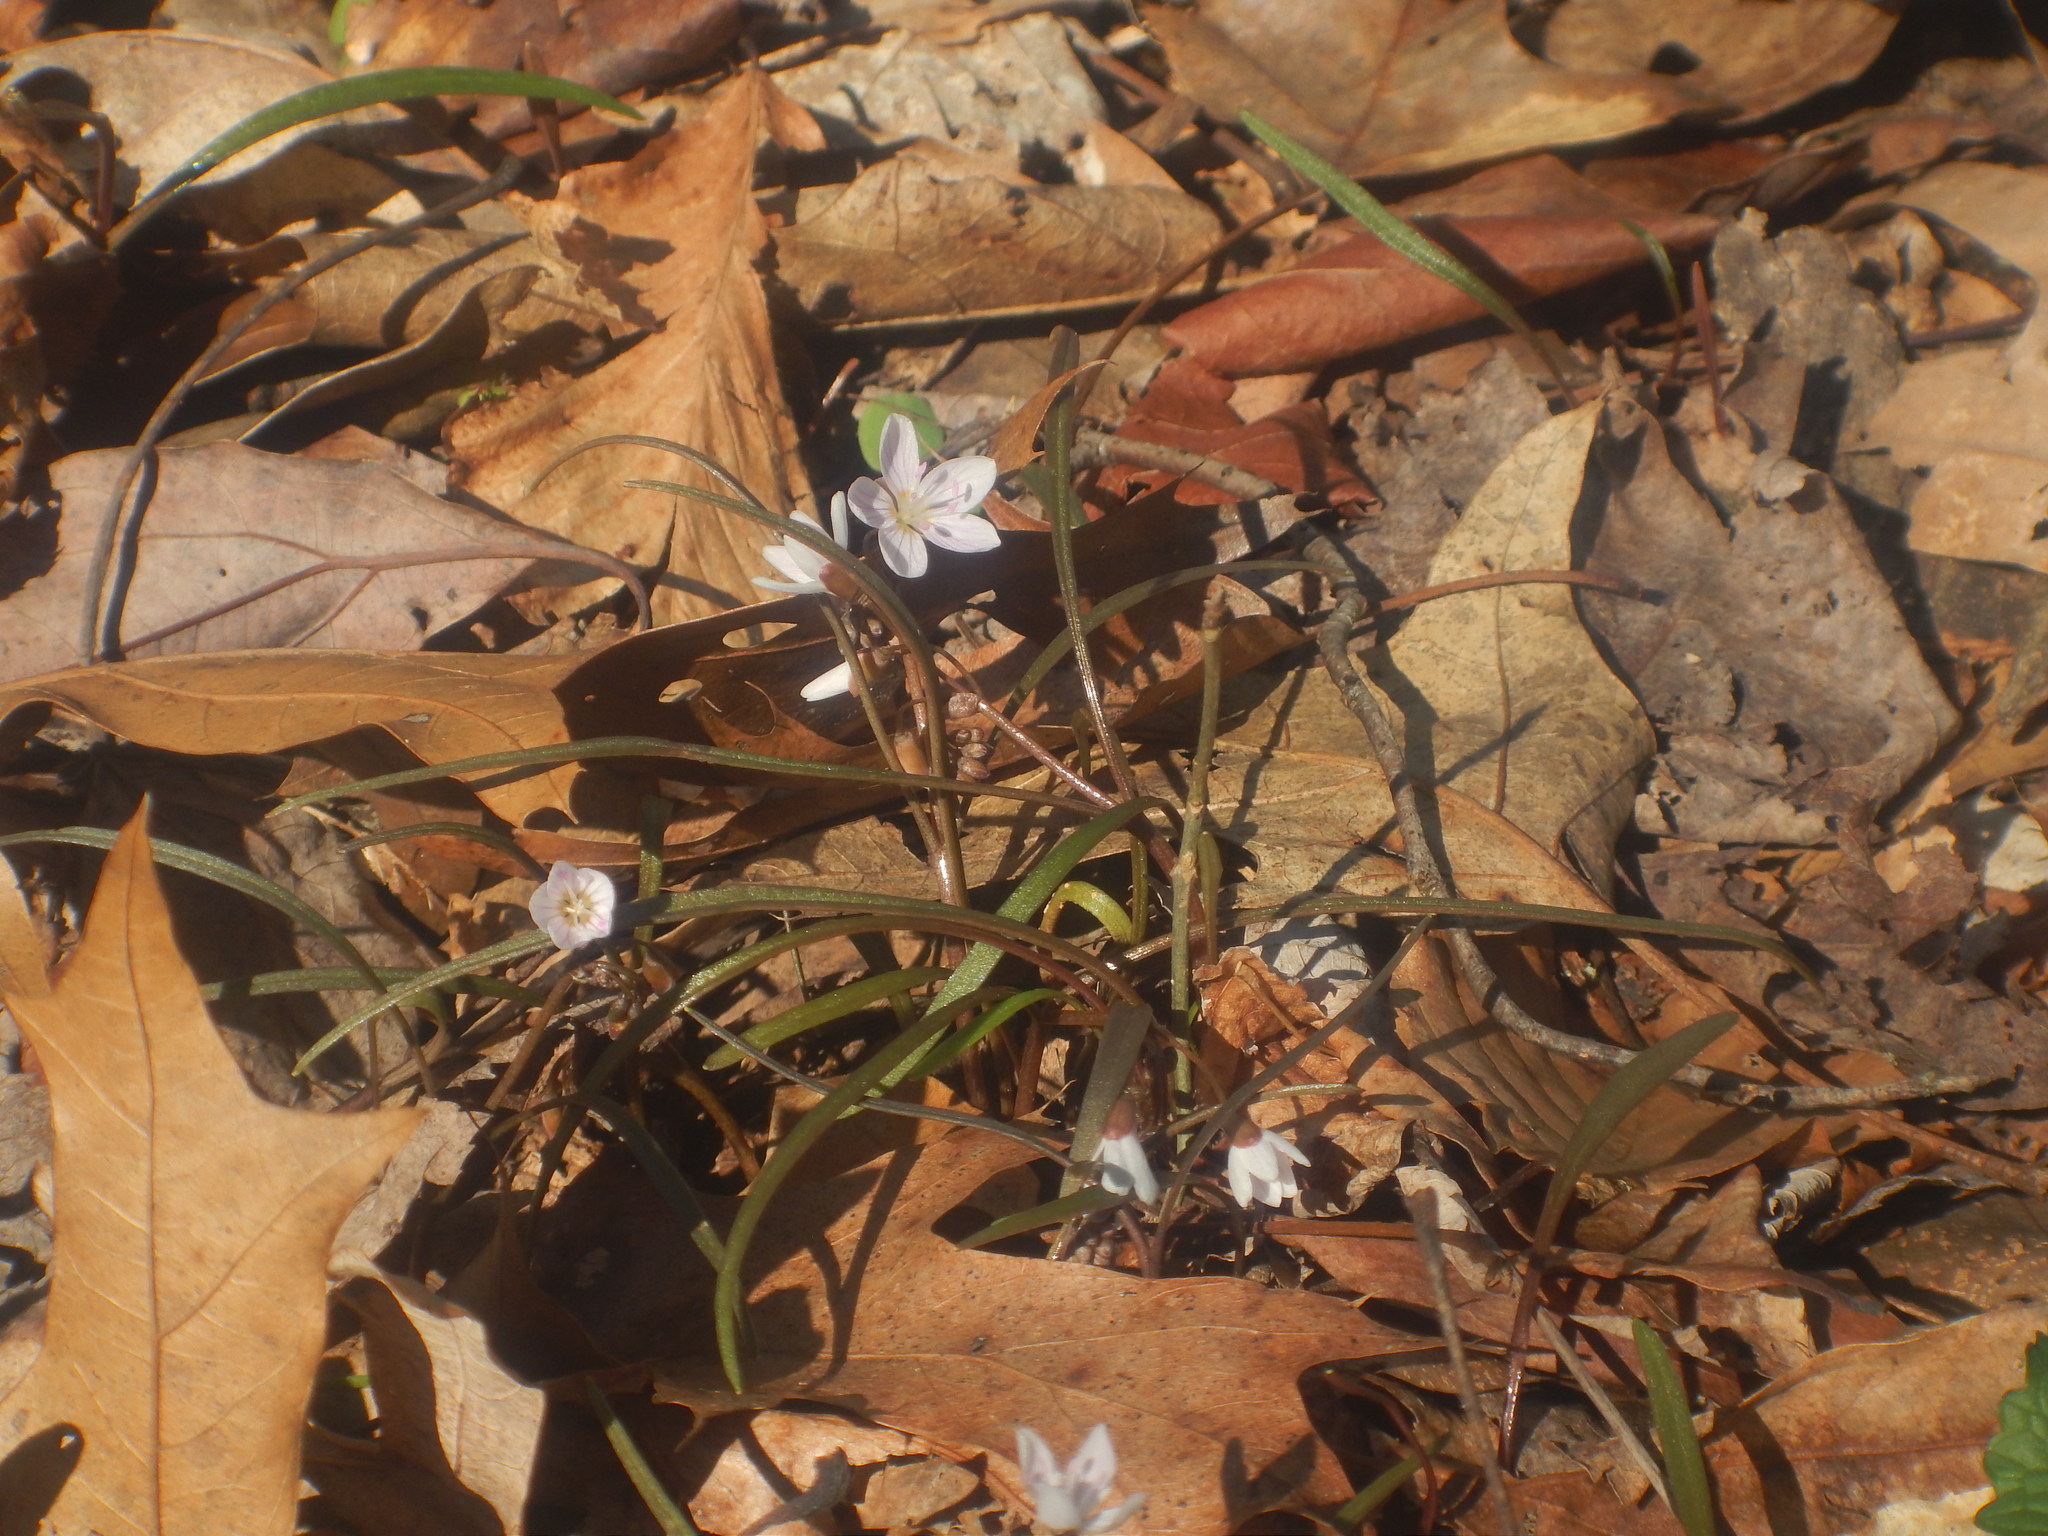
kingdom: Plantae
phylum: Tracheophyta
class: Magnoliopsida
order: Caryophyllales
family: Montiaceae
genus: Claytonia
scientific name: Claytonia virginica
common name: Virginia springbeauty
